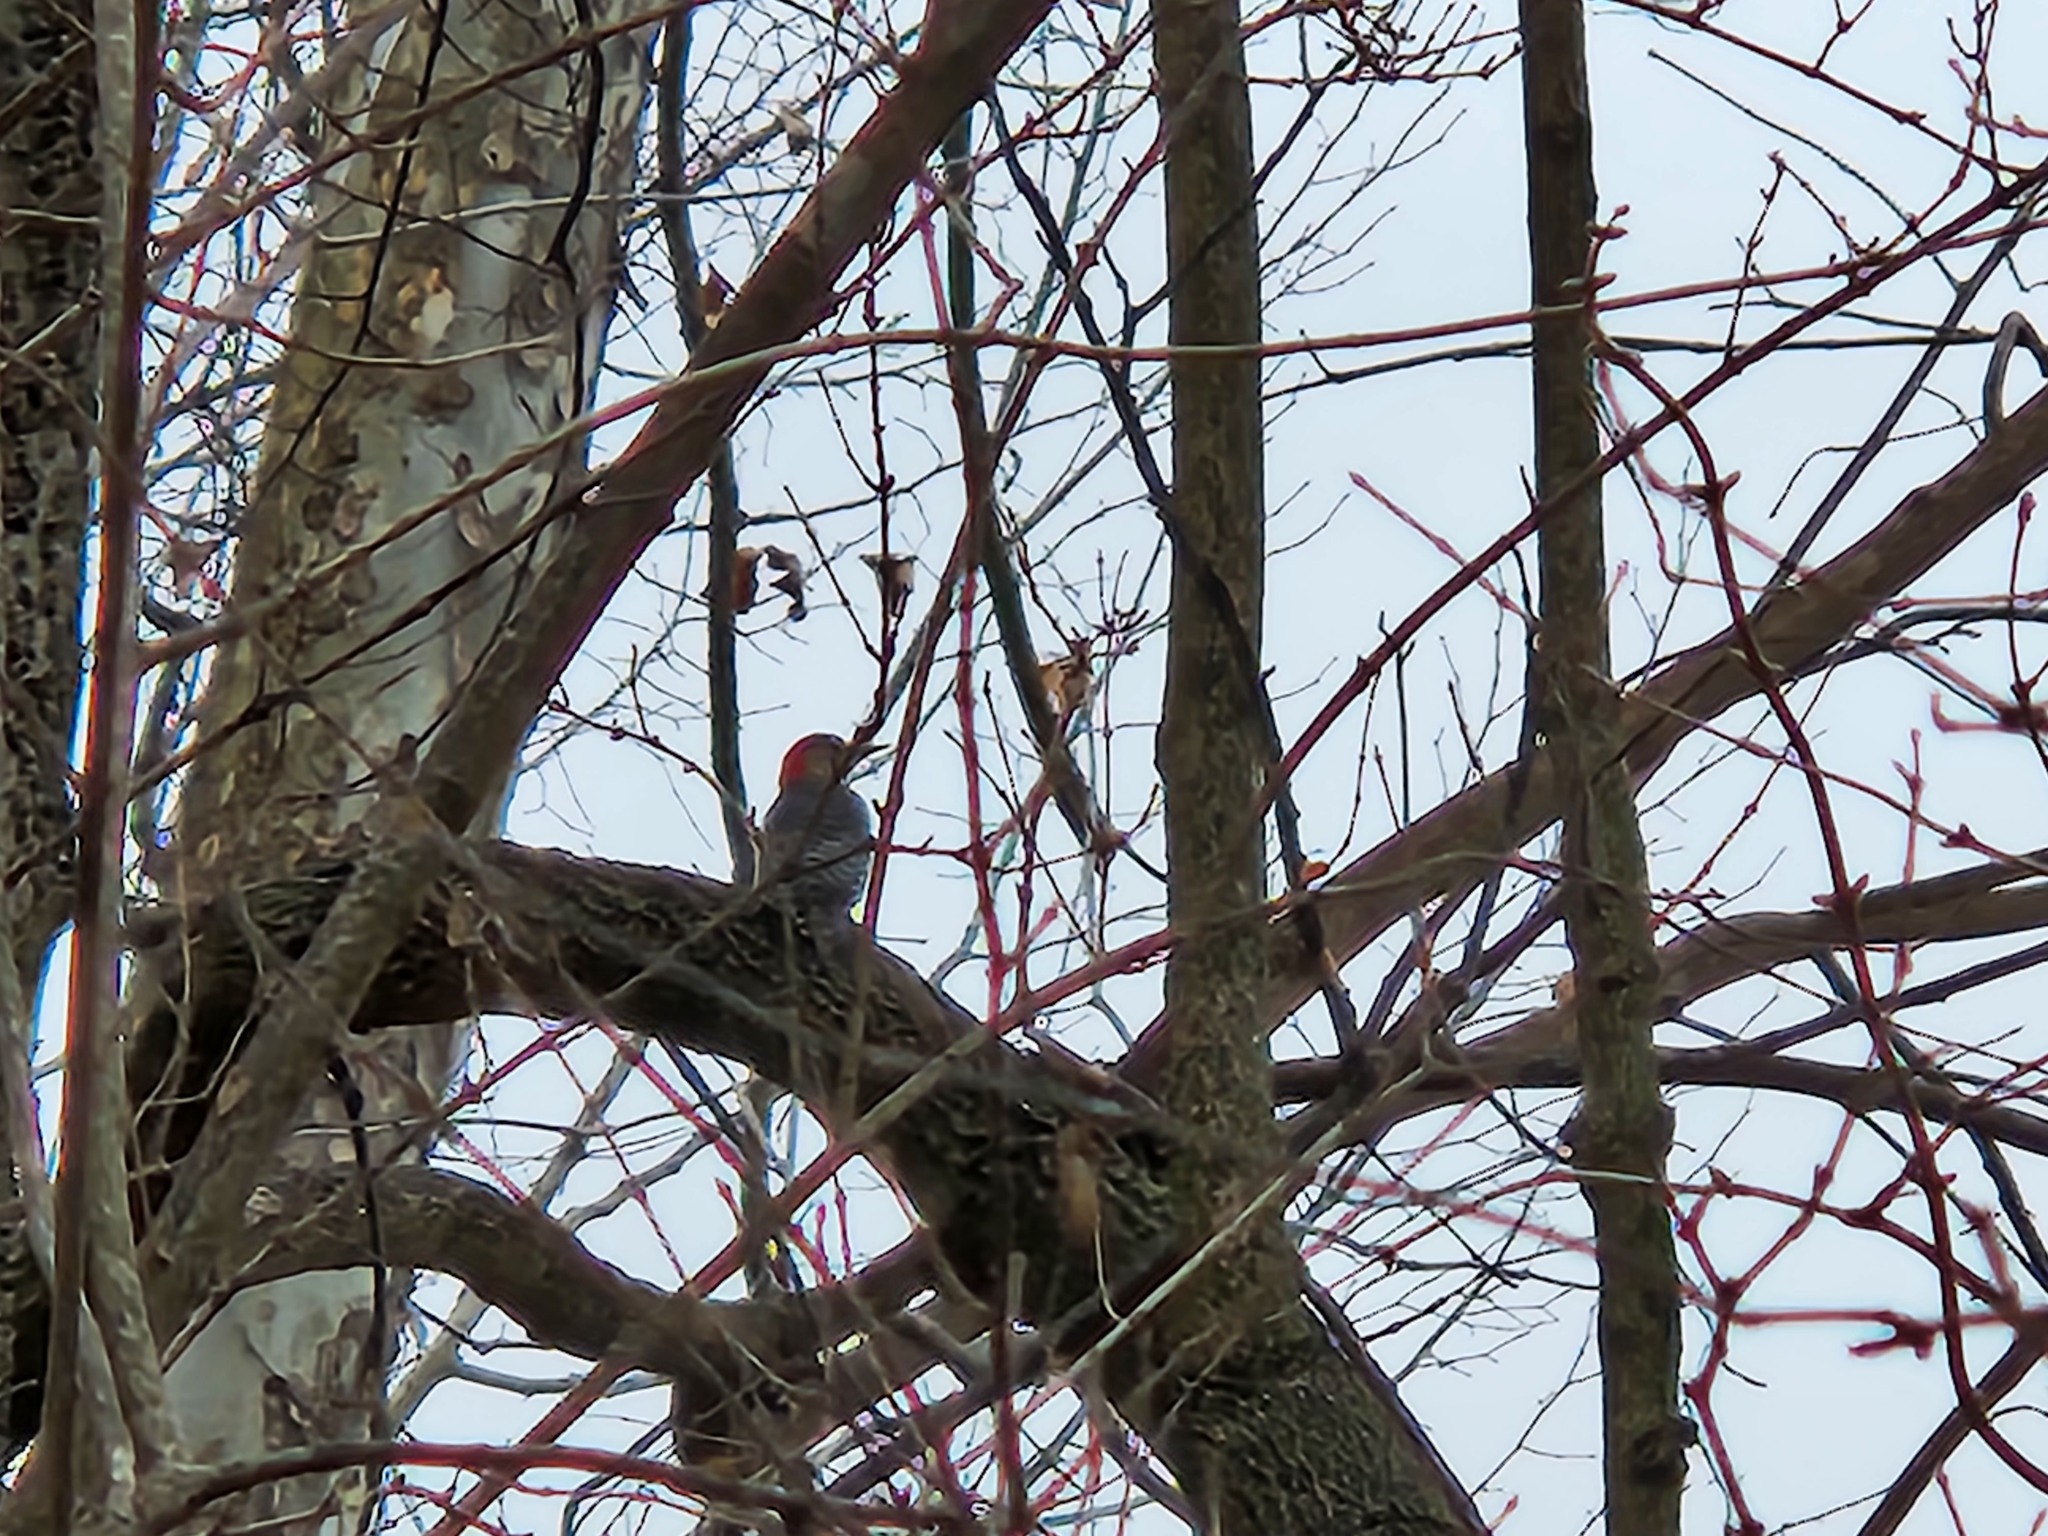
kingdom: Animalia
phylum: Chordata
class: Aves
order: Piciformes
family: Picidae
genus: Melanerpes
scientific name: Melanerpes carolinus
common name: Red-bellied woodpecker
